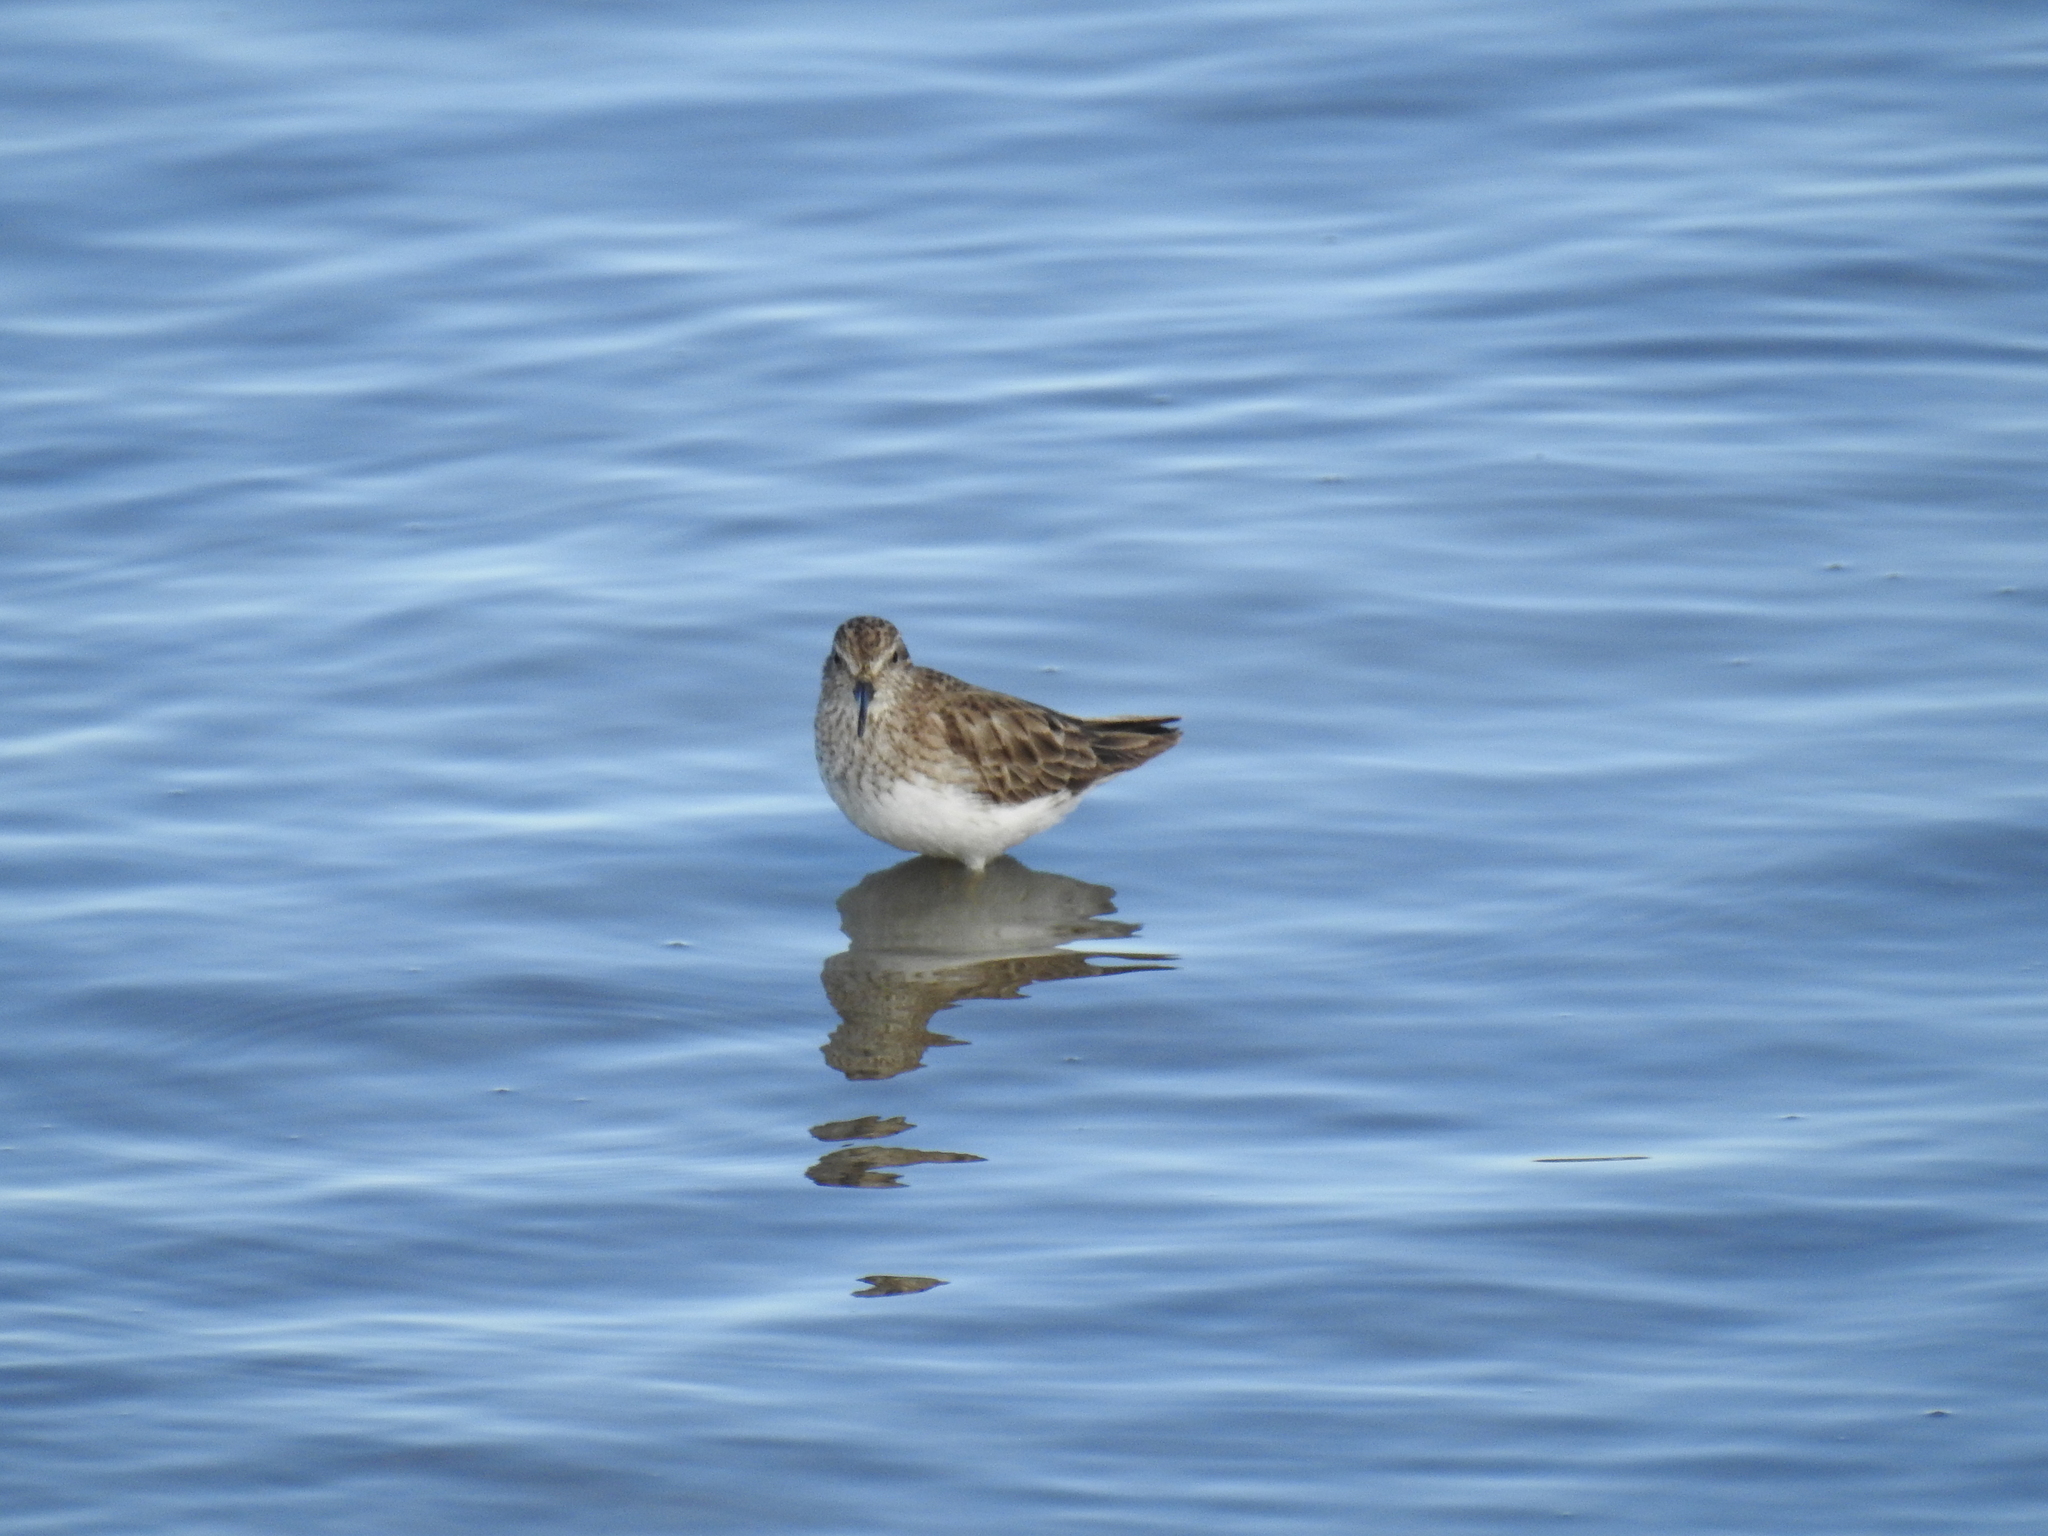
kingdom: Animalia
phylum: Chordata
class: Aves
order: Charadriiformes
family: Scolopacidae
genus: Calidris
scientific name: Calidris mauri
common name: Western sandpiper
